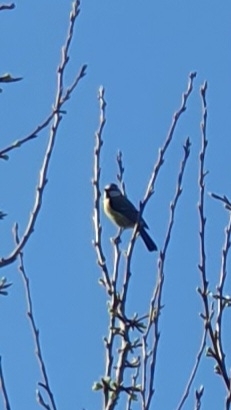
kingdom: Animalia
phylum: Chordata
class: Aves
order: Passeriformes
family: Paridae
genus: Cyanistes
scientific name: Cyanistes caeruleus
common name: Eurasian blue tit
